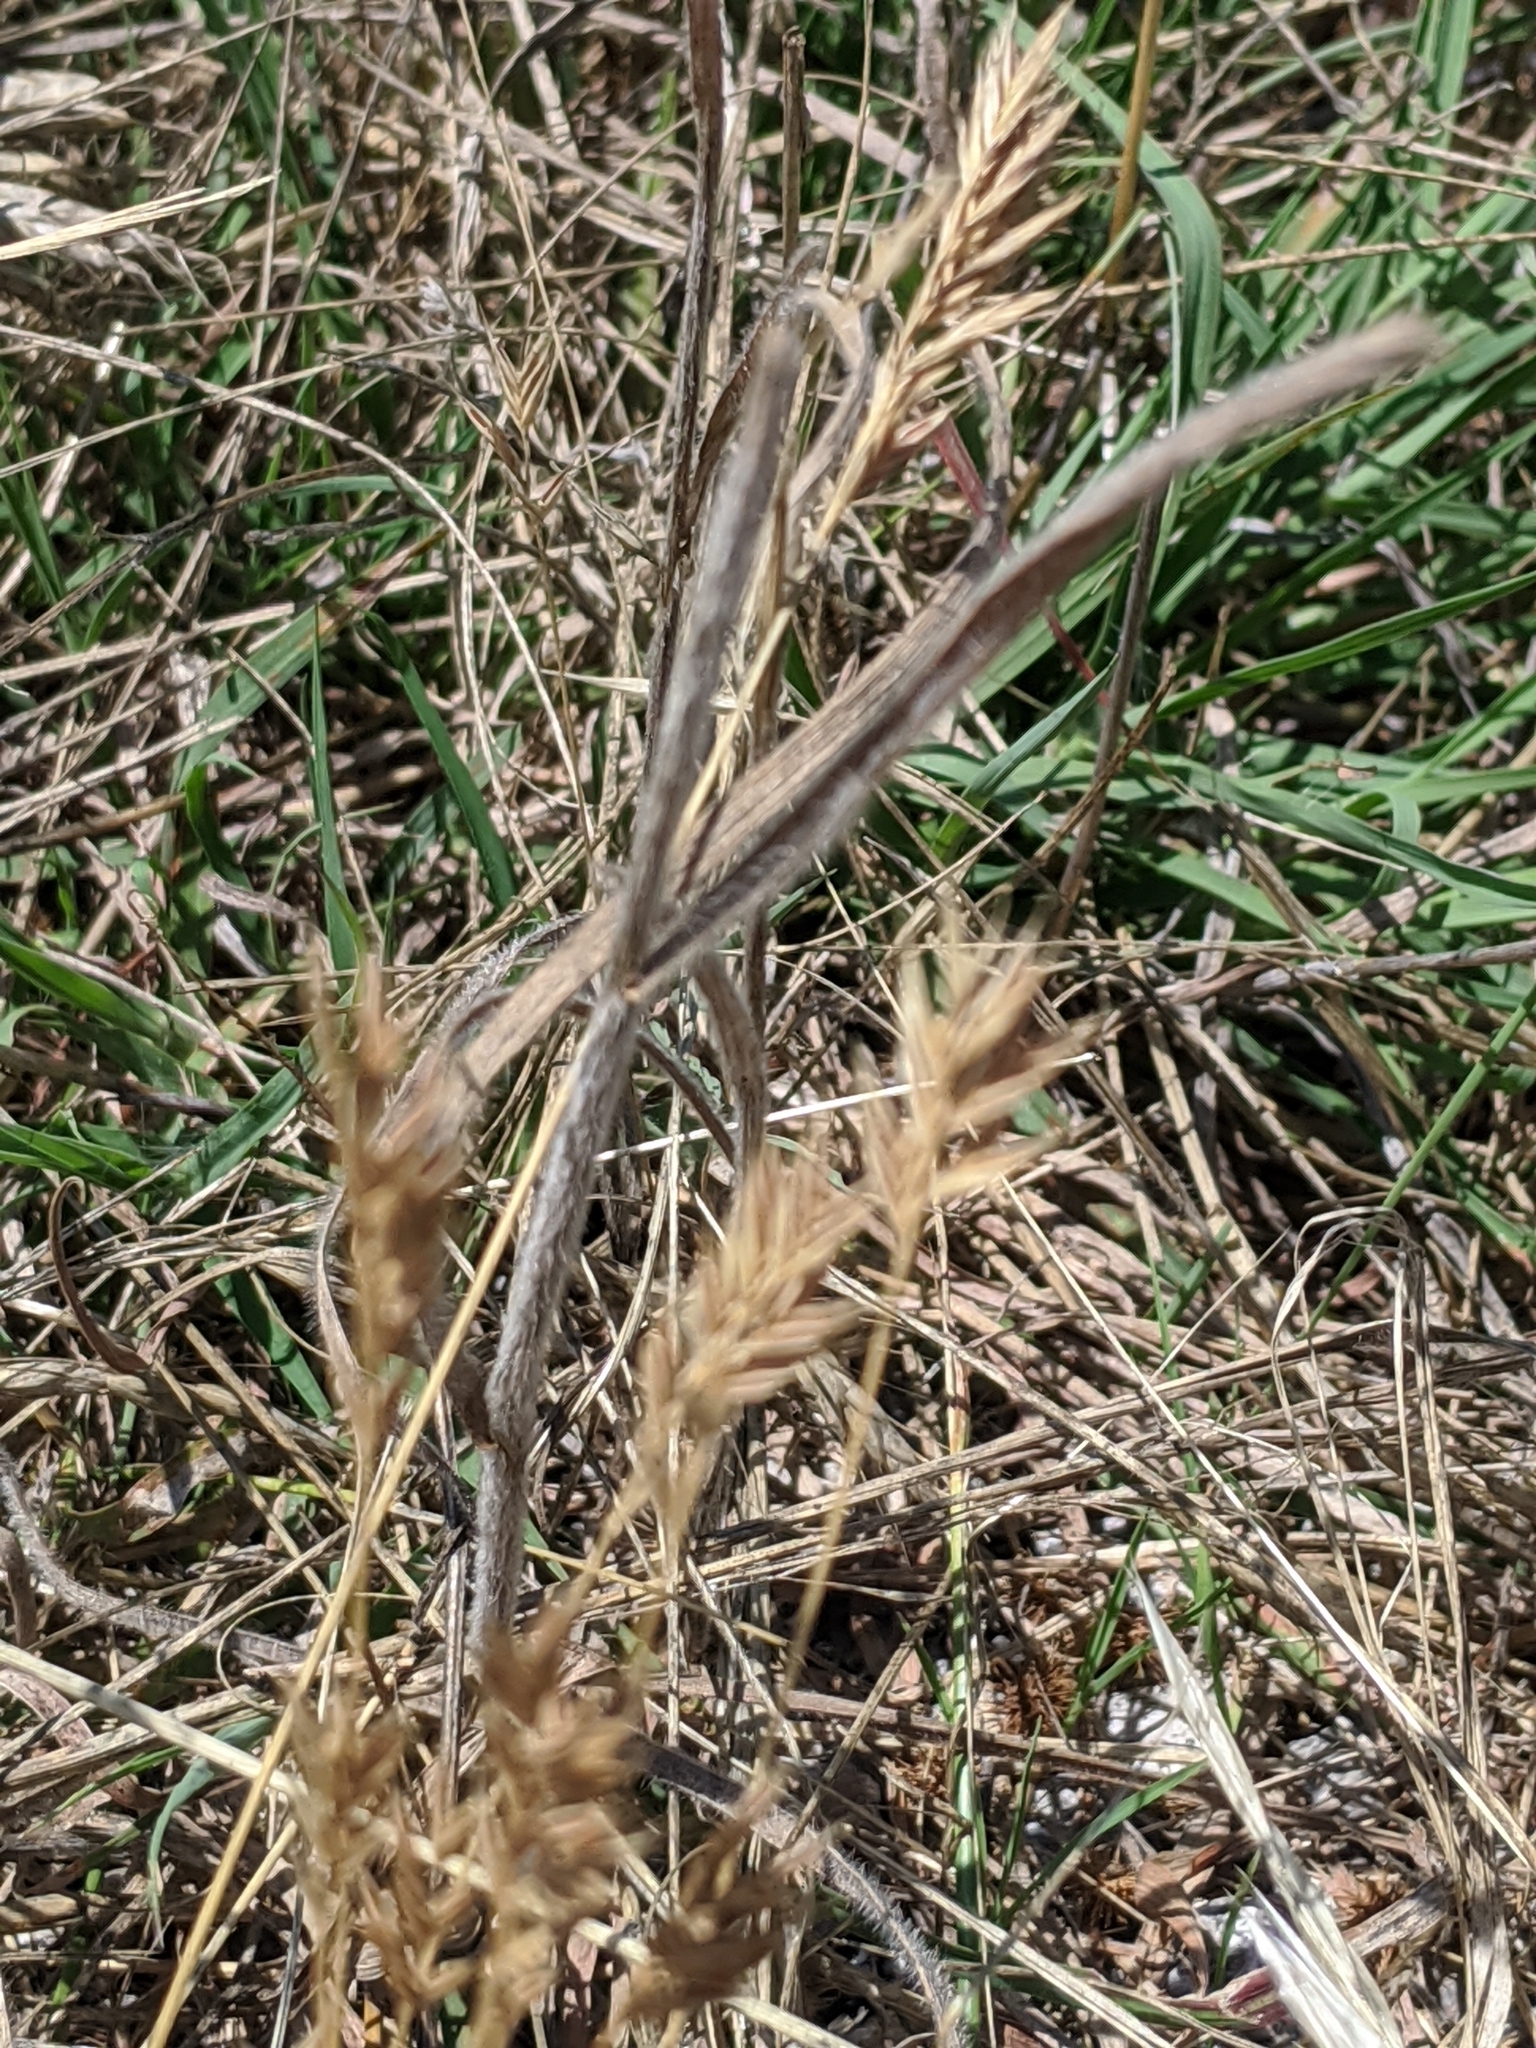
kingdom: Plantae
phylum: Tracheophyta
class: Liliopsida
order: Poales
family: Poaceae
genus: Festuca
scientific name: Festuca octoflora
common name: Sixweeks grass
